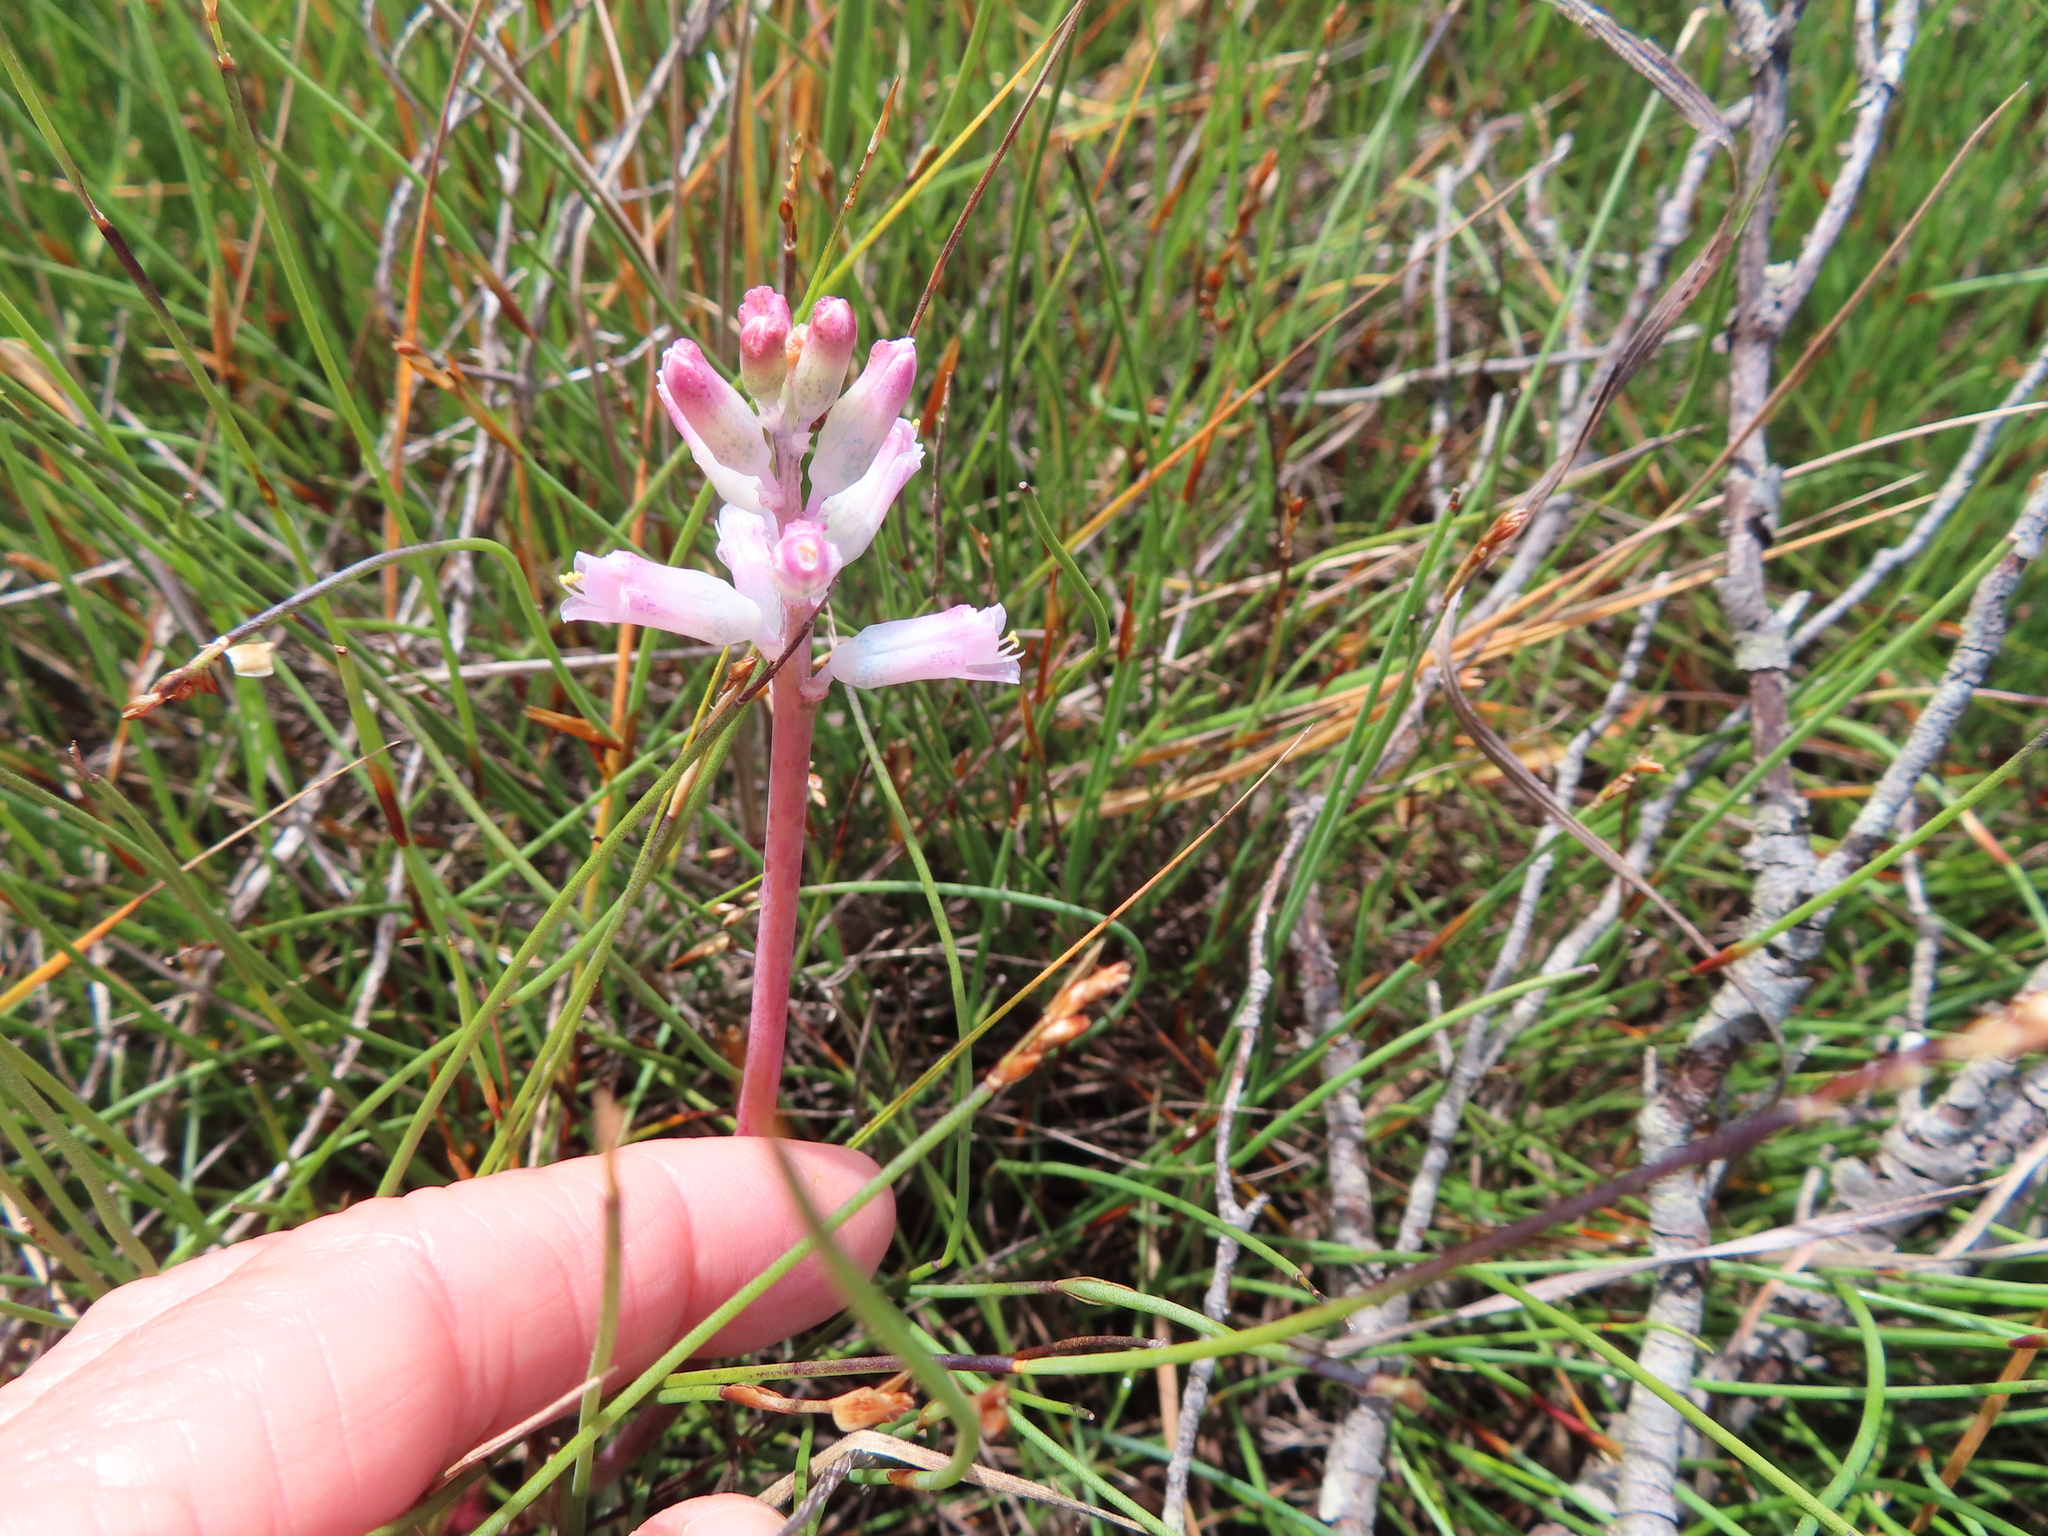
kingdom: Plantae
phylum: Tracheophyta
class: Liliopsida
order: Asparagales
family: Asparagaceae
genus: Lachenalia
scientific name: Lachenalia rosea
